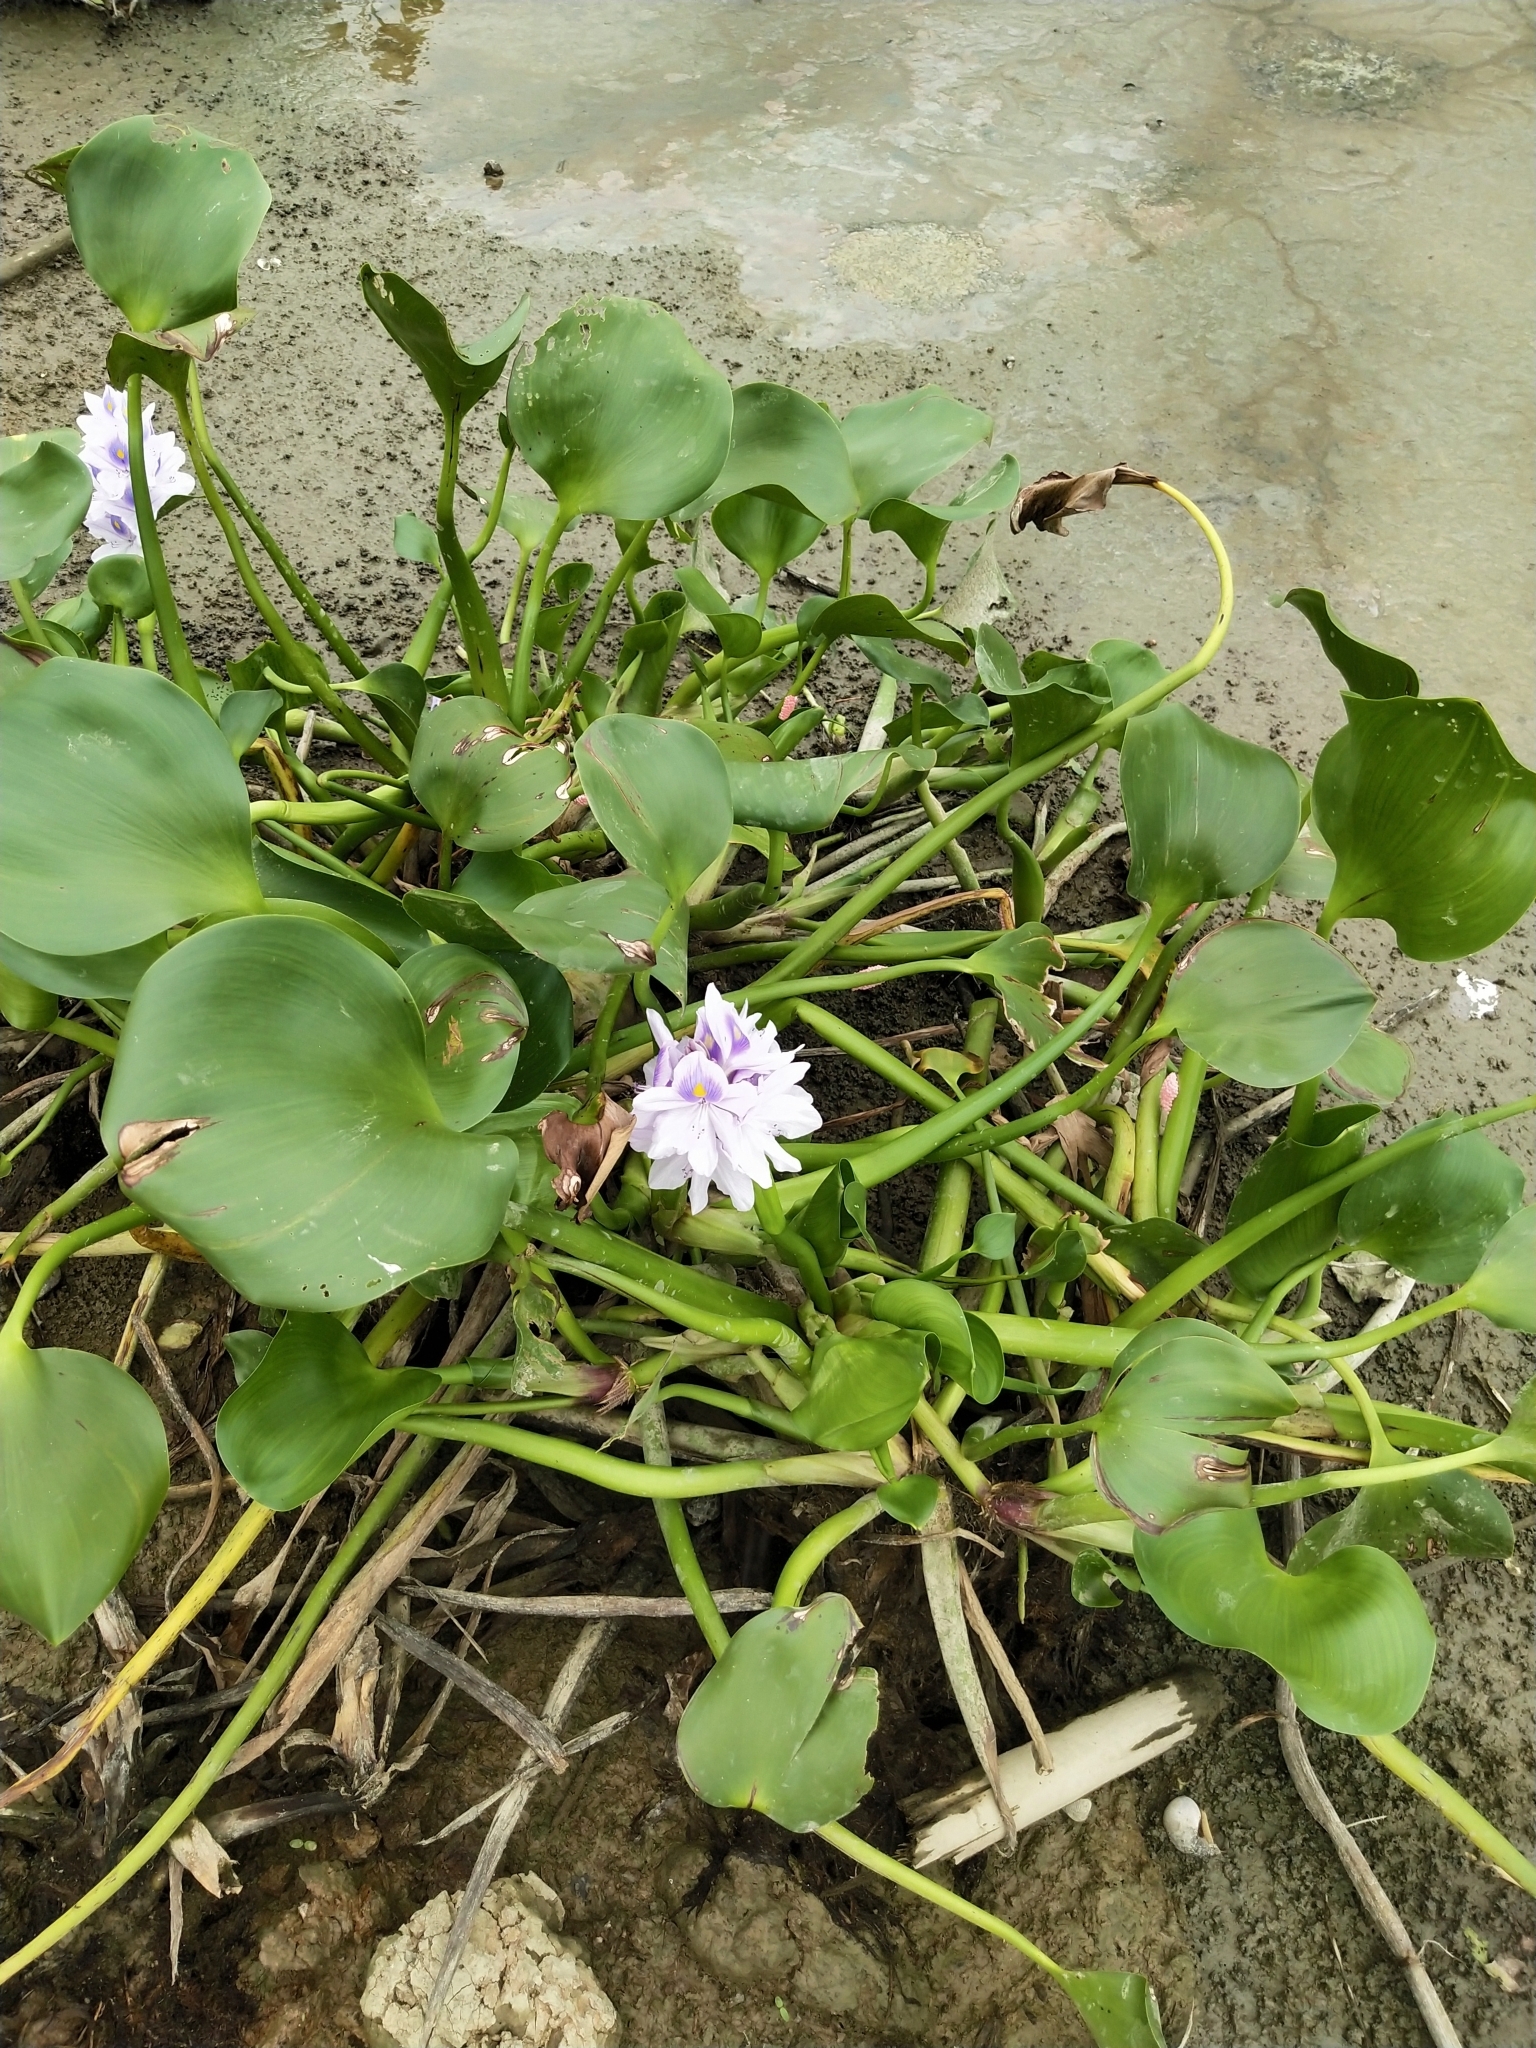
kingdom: Plantae
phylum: Tracheophyta
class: Liliopsida
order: Commelinales
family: Pontederiaceae
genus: Pontederia
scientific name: Pontederia crassipes
